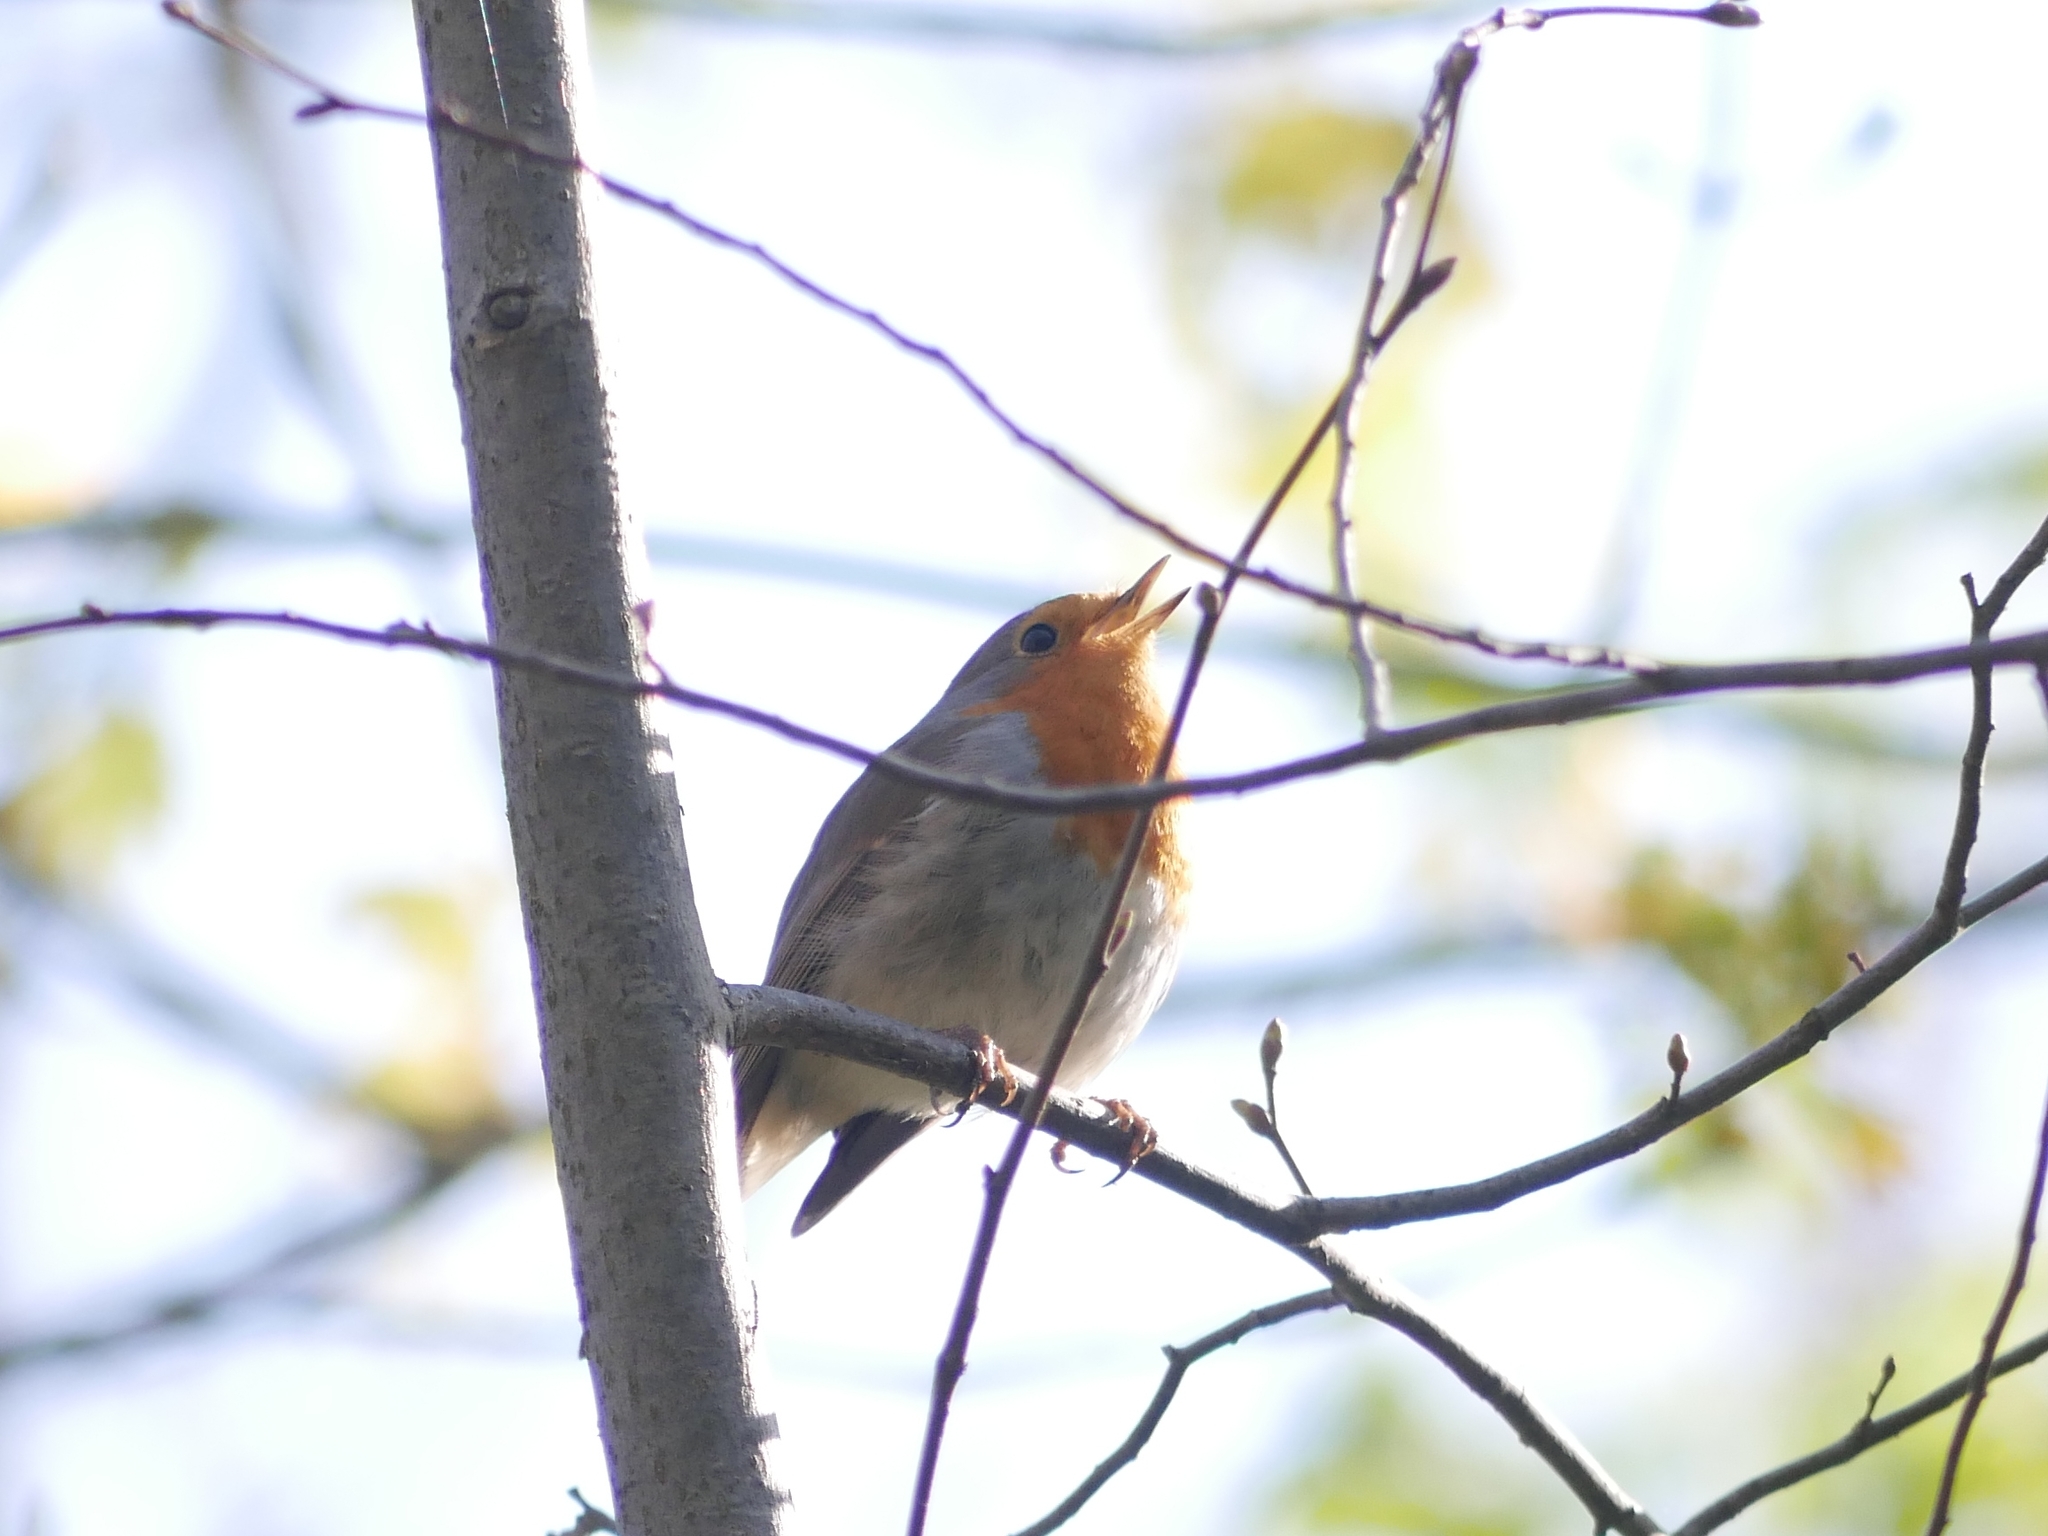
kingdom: Animalia
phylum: Chordata
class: Aves
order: Passeriformes
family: Muscicapidae
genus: Erithacus
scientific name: Erithacus rubecula
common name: European robin
